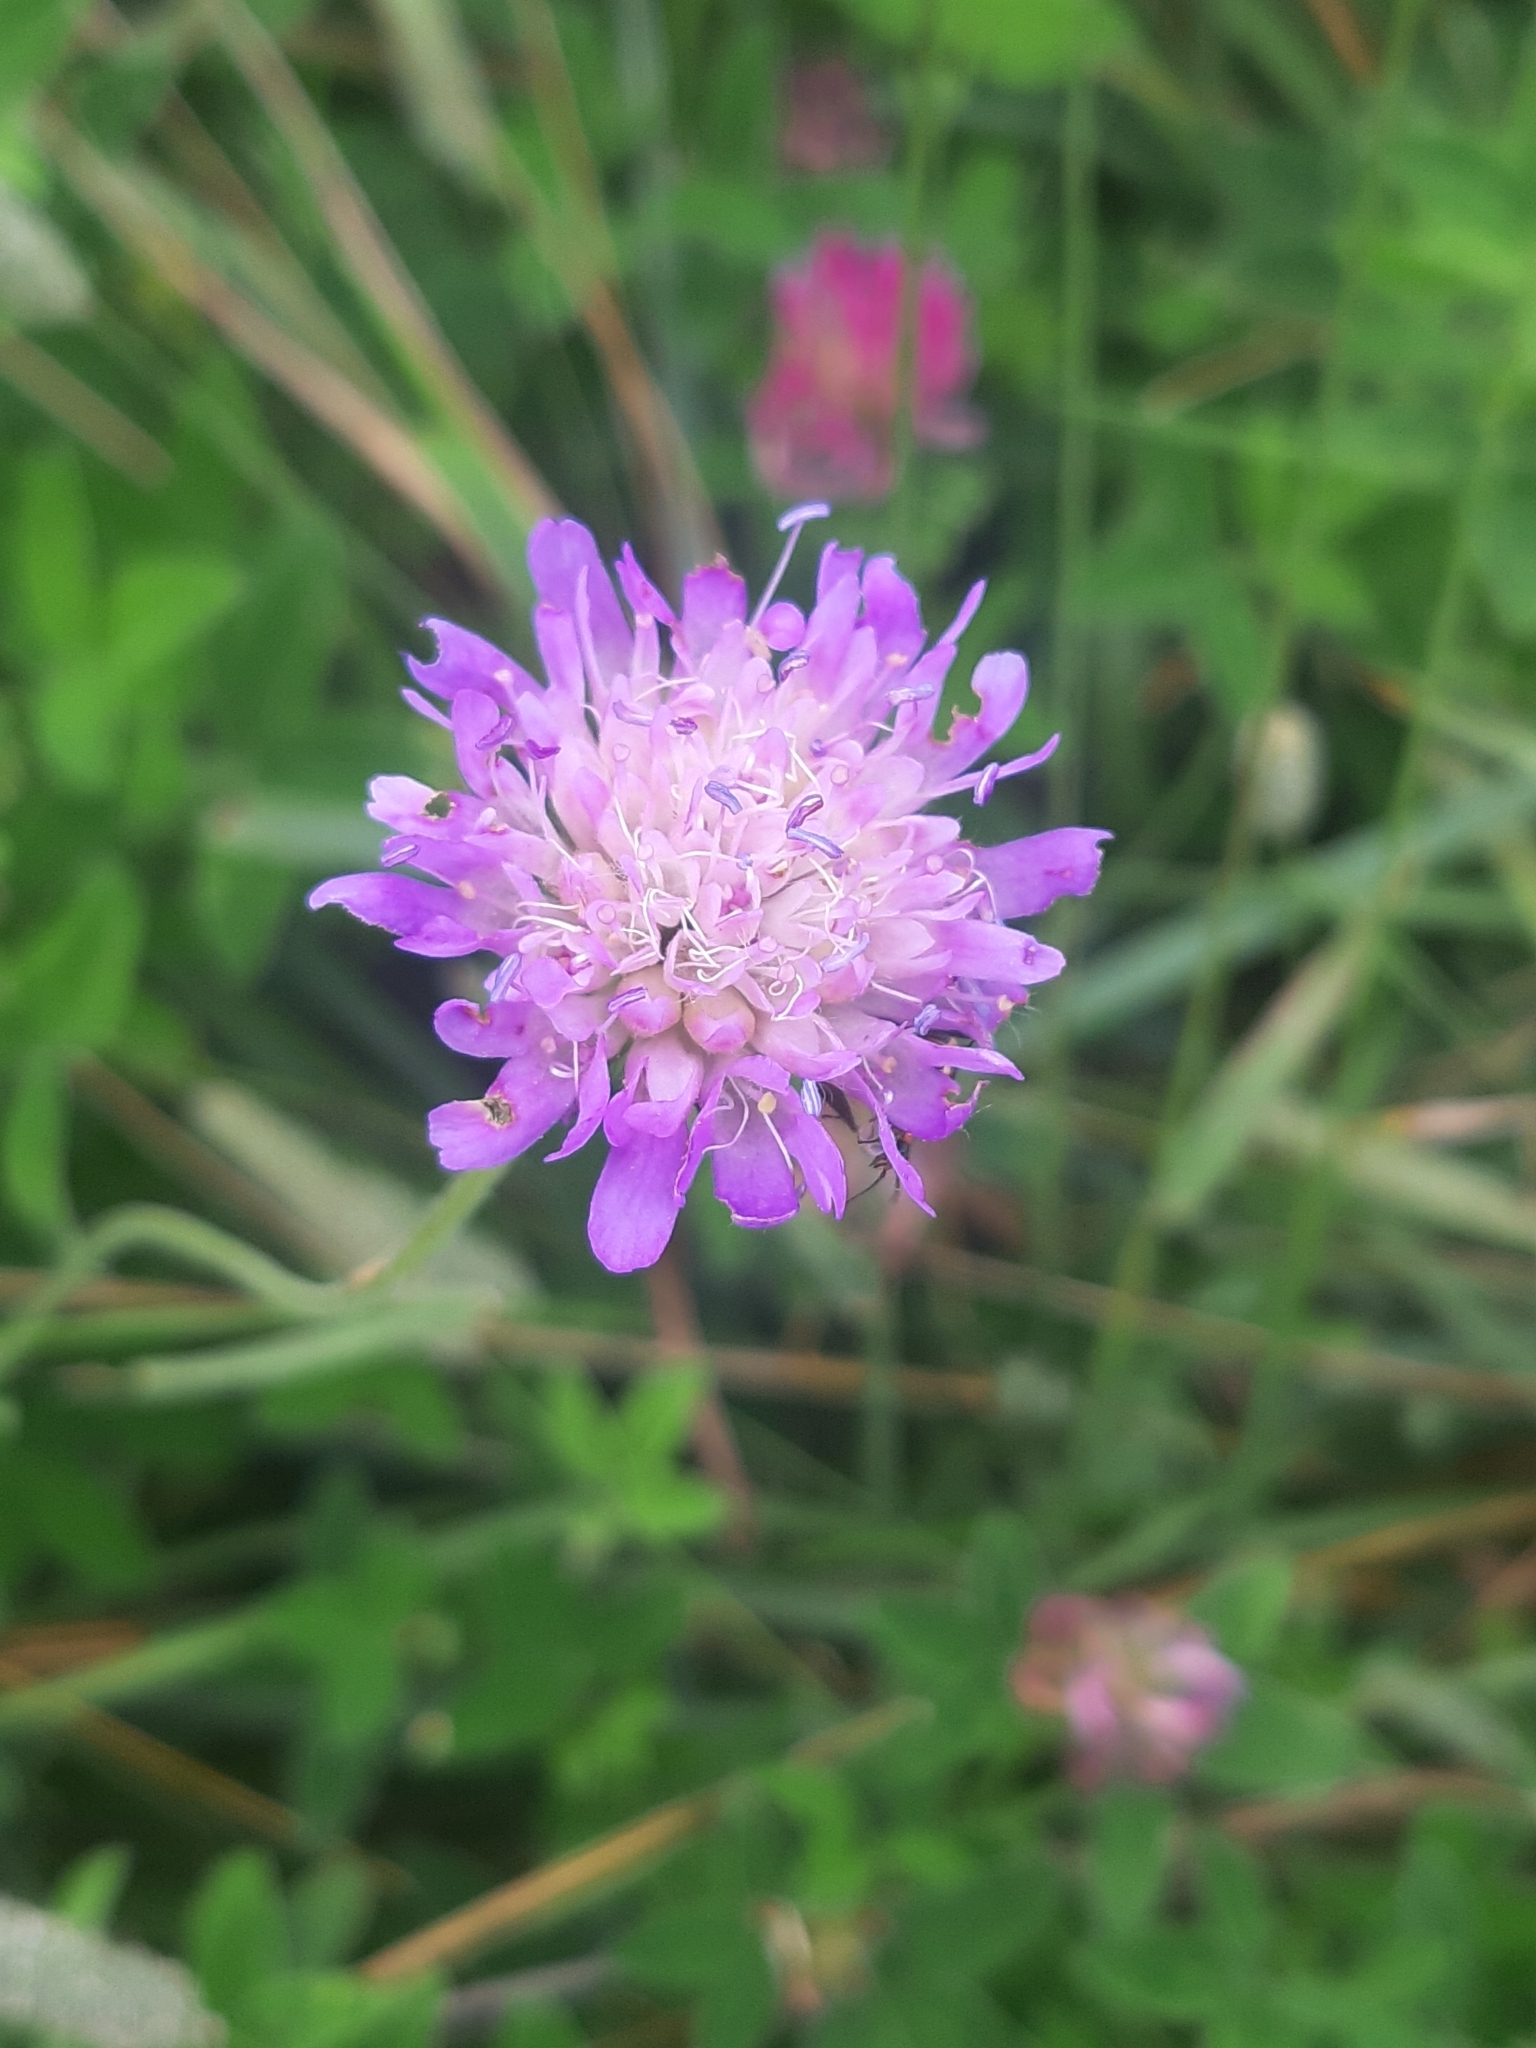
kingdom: Plantae
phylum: Tracheophyta
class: Magnoliopsida
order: Dipsacales
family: Caprifoliaceae
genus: Knautia
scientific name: Knautia arvensis
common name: Field scabiosa
